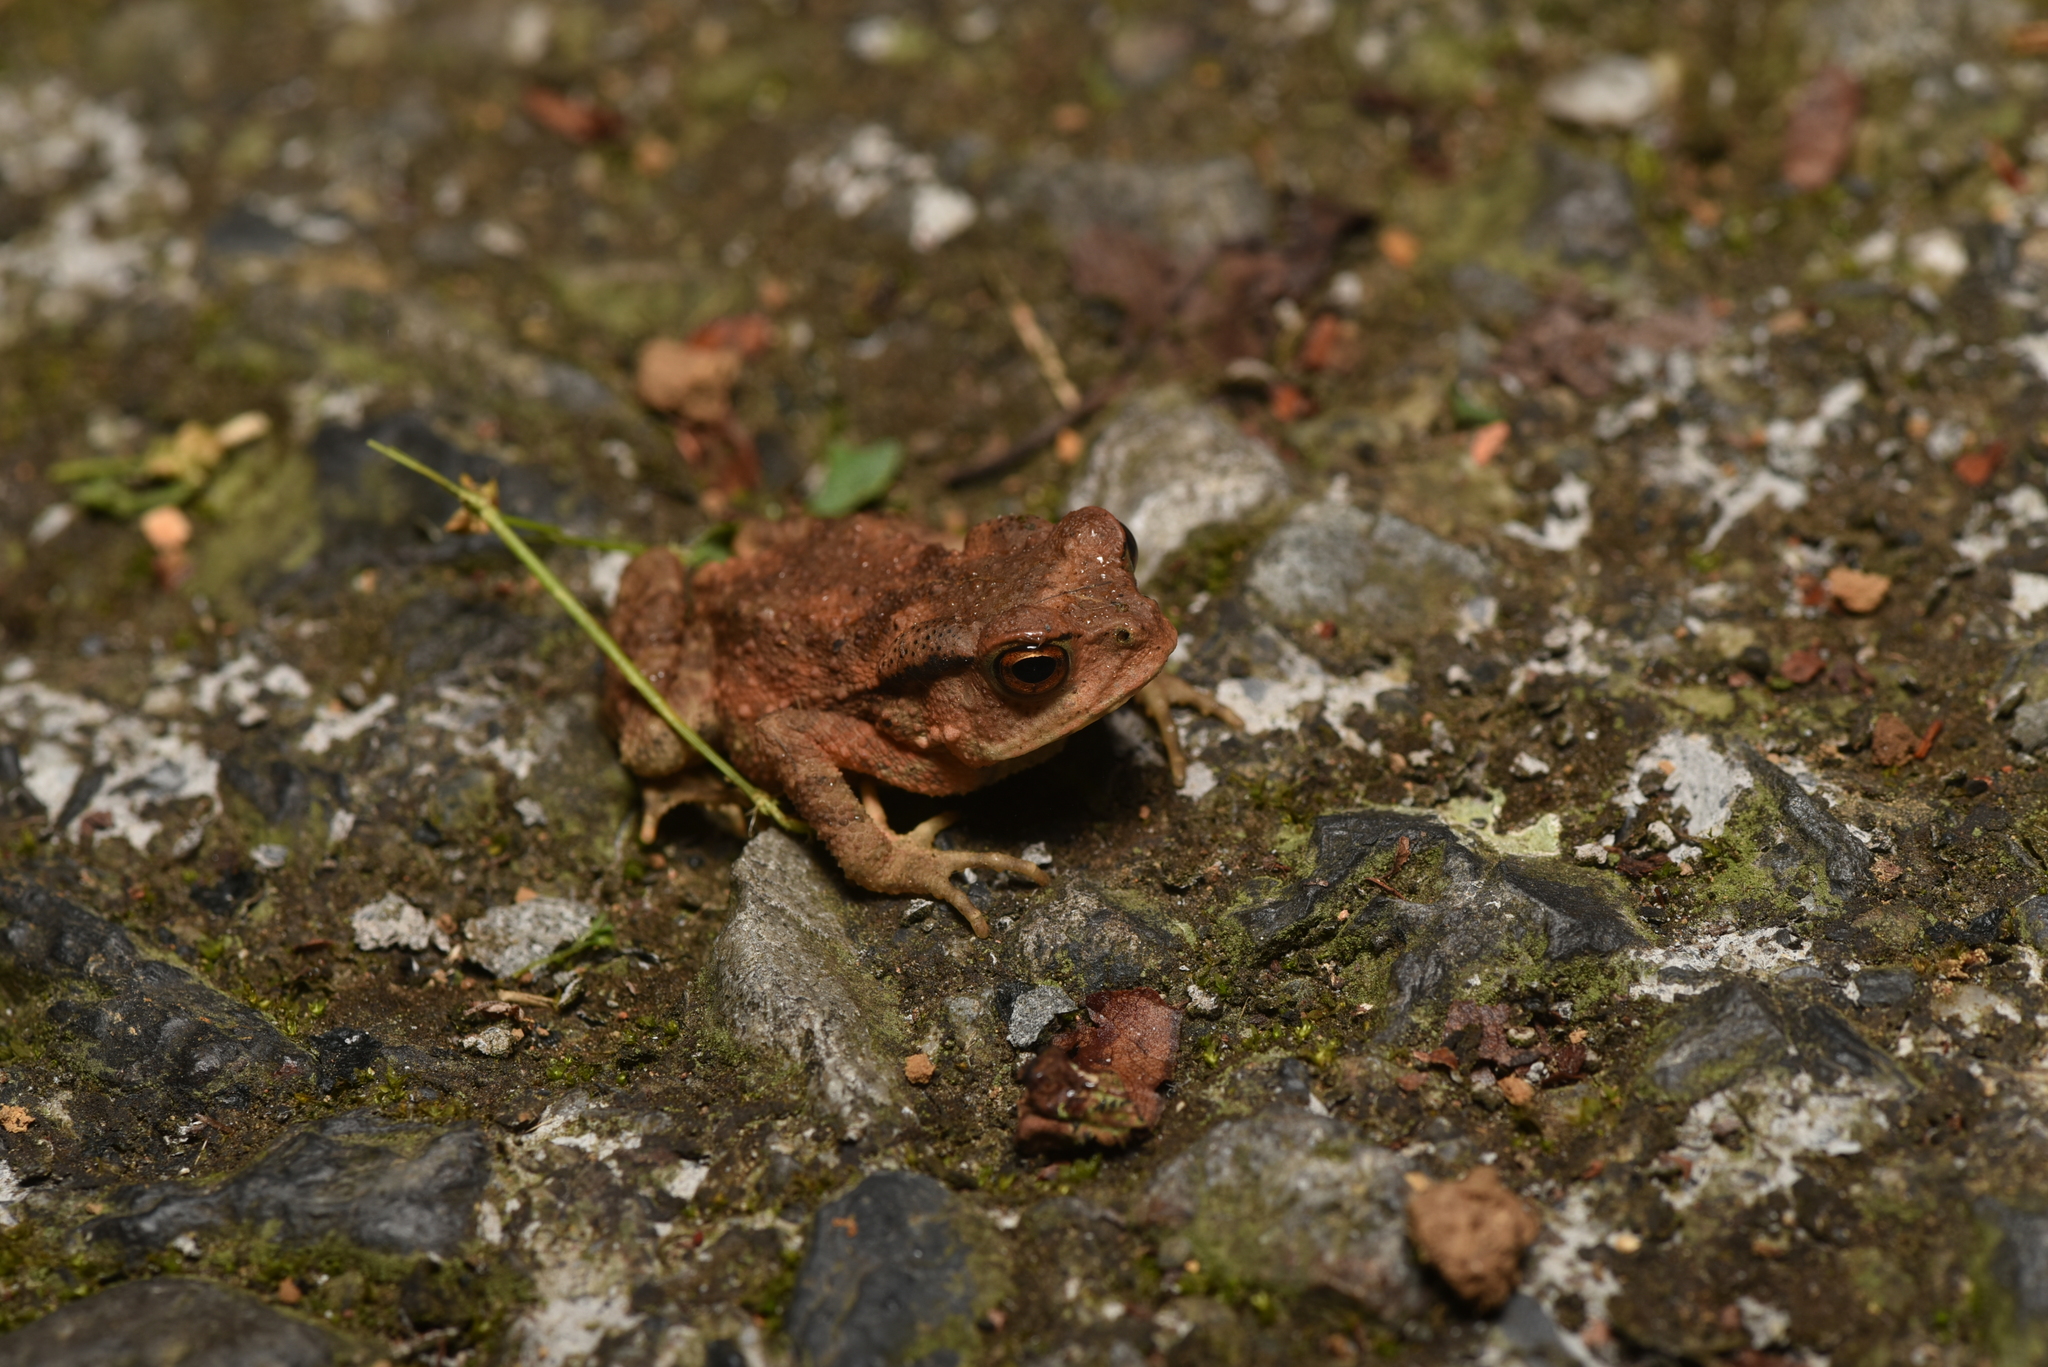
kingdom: Animalia
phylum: Chordata
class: Amphibia
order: Anura
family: Bufonidae
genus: Bufo
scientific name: Bufo bankorensis
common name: Bankor toad
